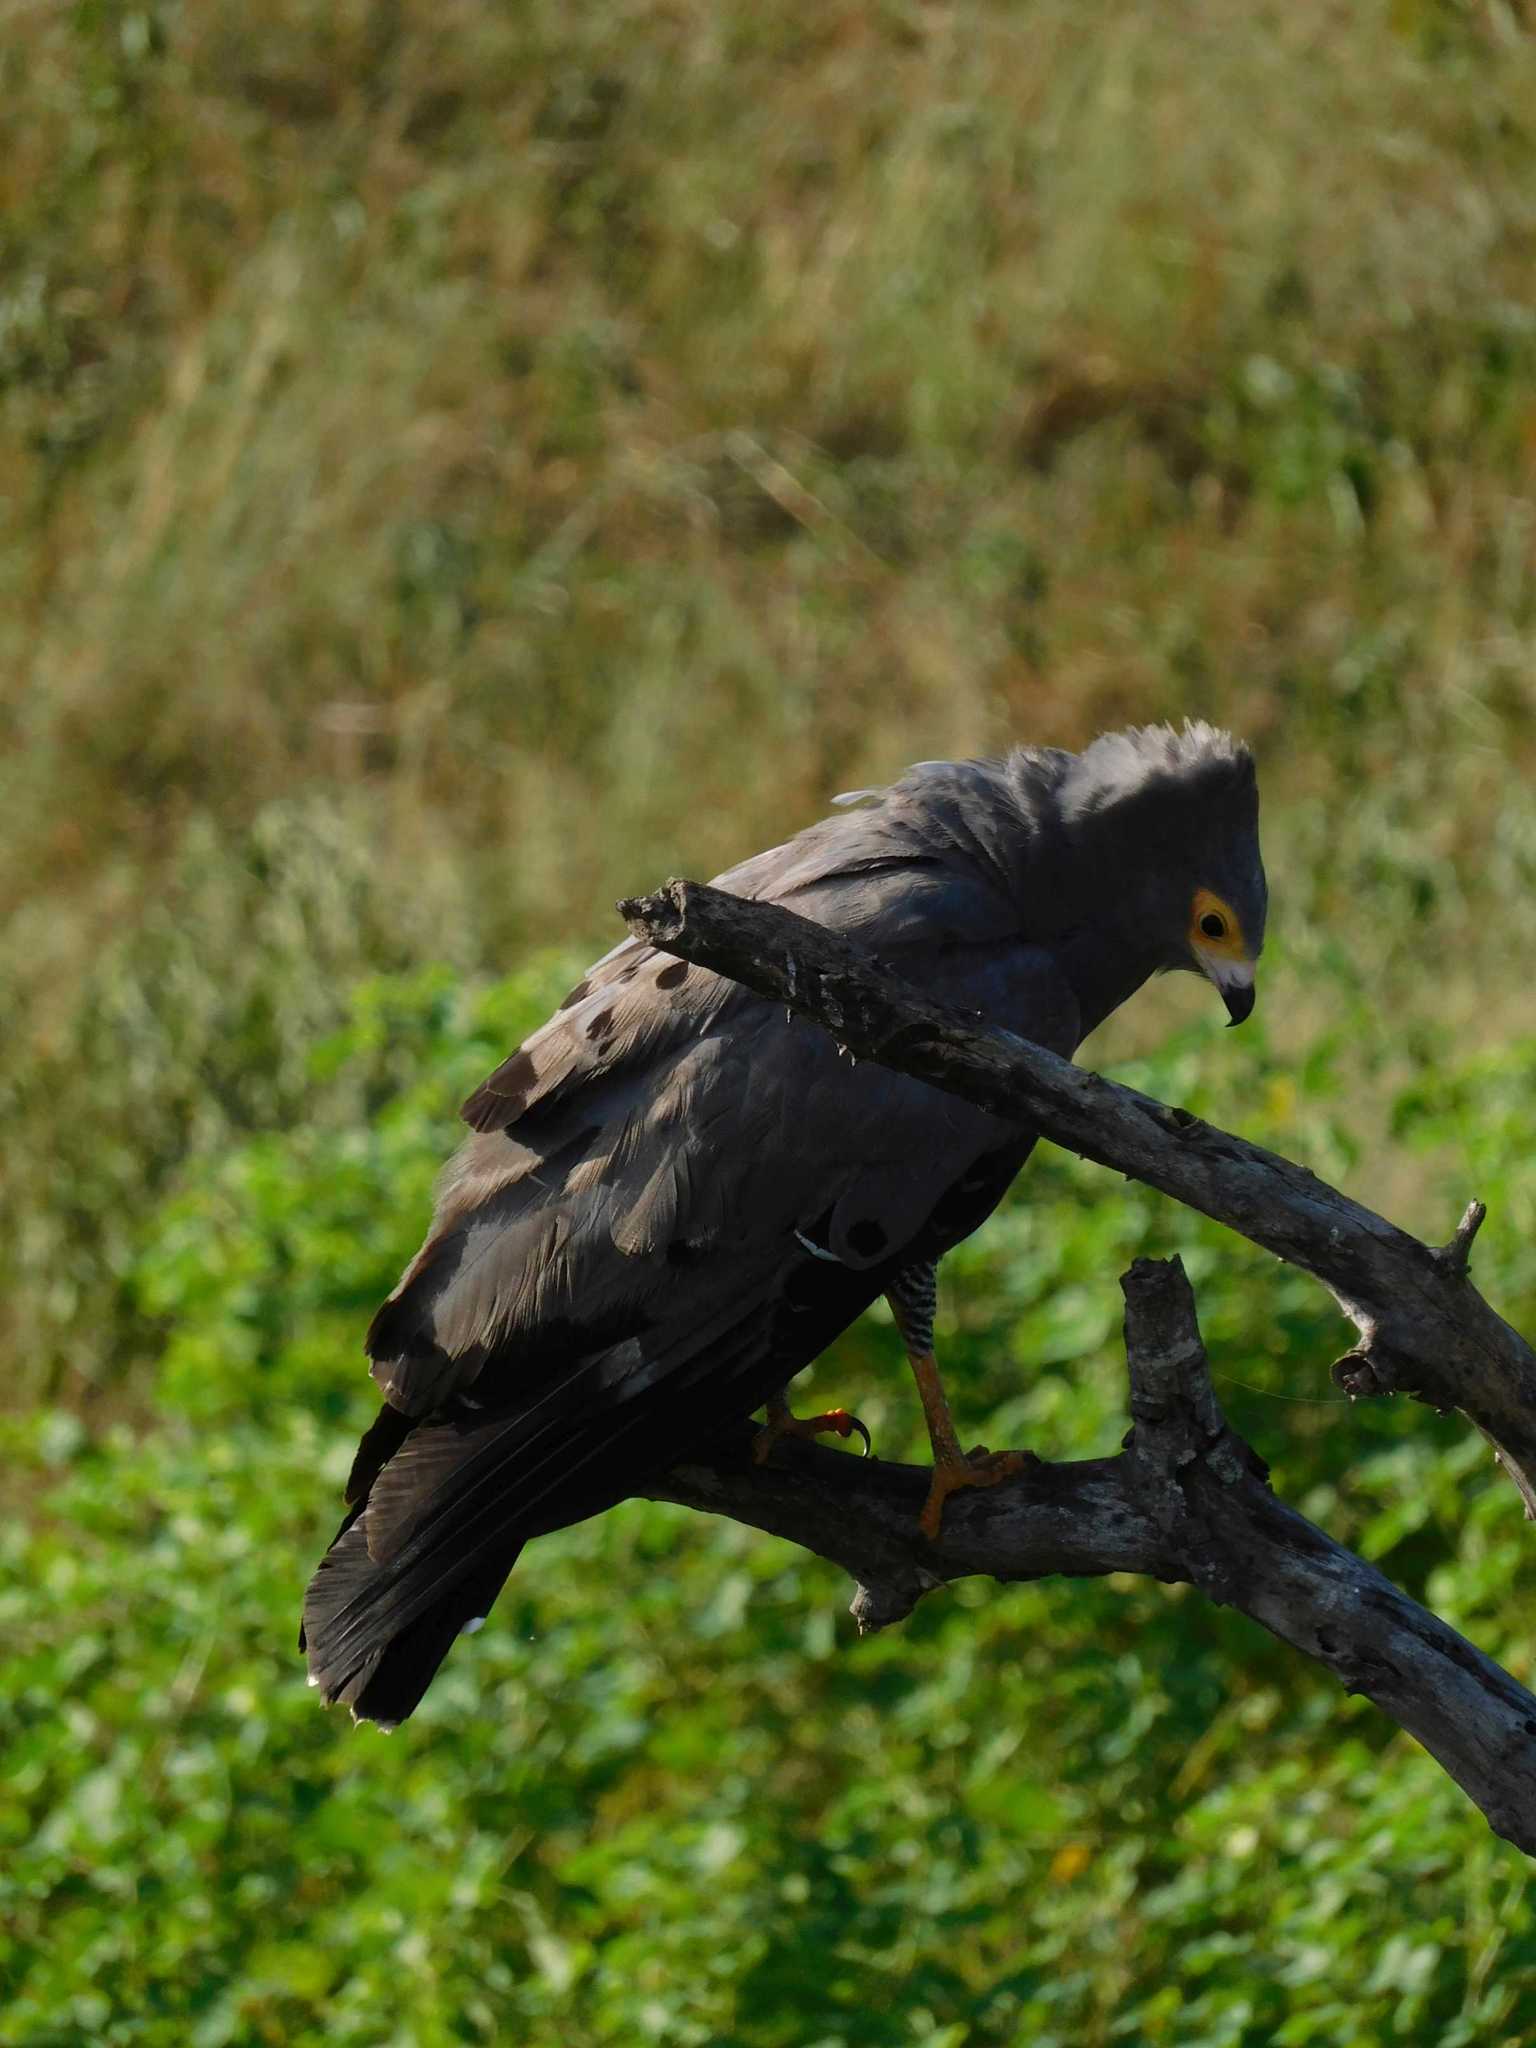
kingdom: Animalia
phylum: Chordata
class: Aves
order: Accipitriformes
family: Accipitridae
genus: Polyboroides
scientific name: Polyboroides typus
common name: African harrier-hawk
